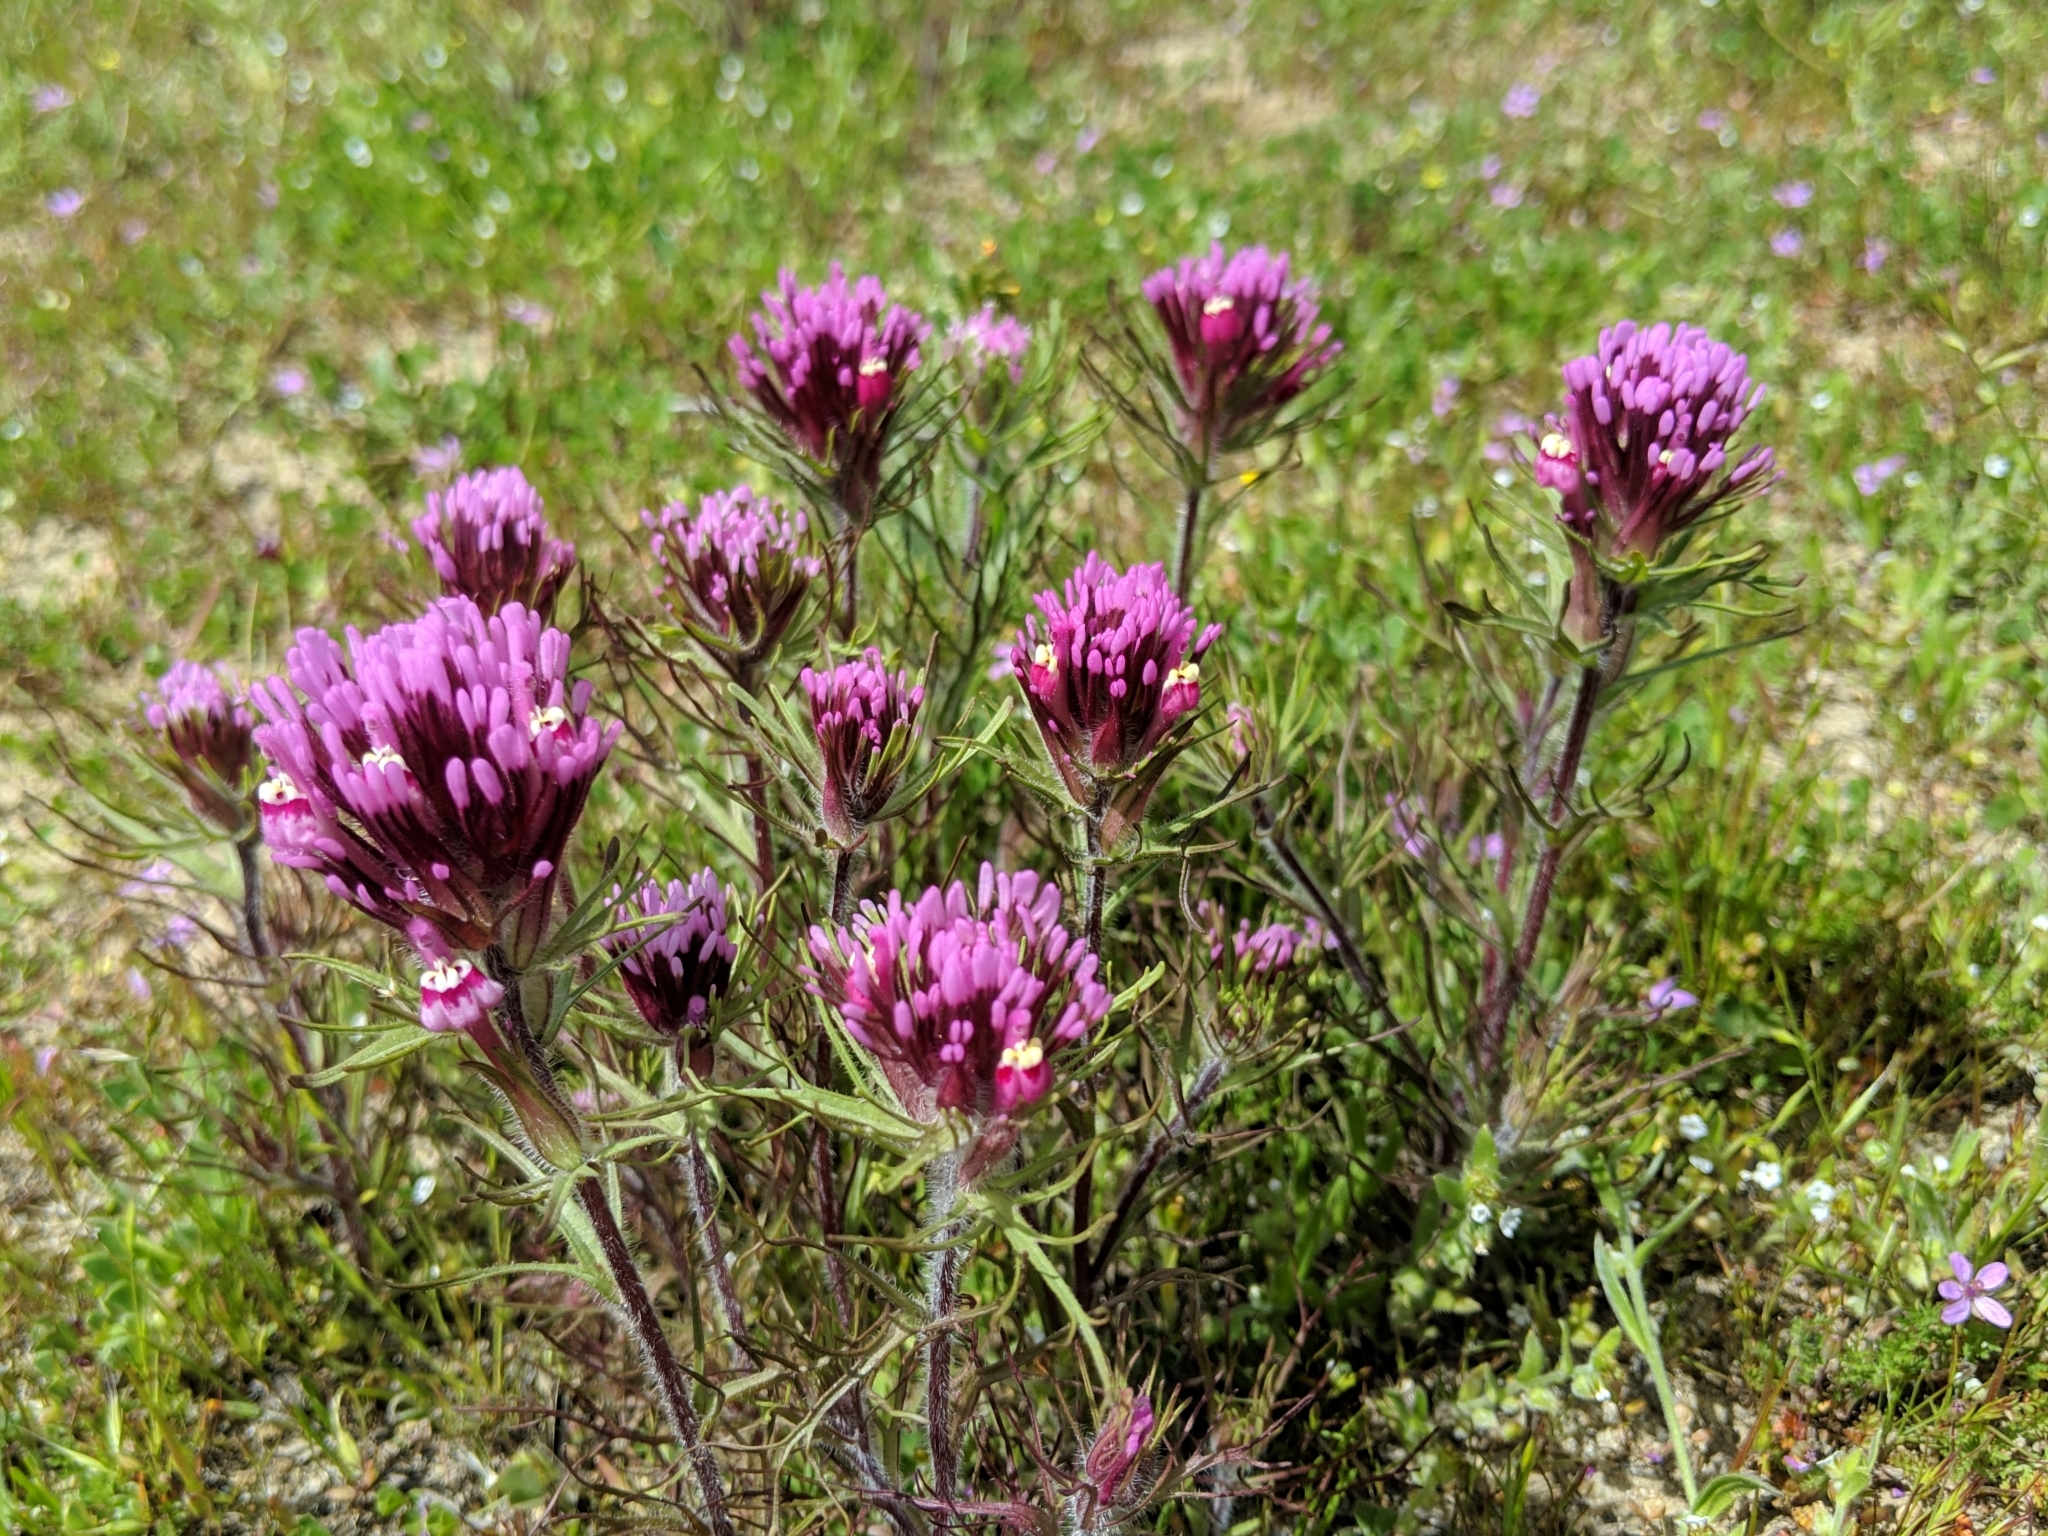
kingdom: Plantae
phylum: Tracheophyta
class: Magnoliopsida
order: Lamiales
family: Orobanchaceae
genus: Castilleja
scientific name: Castilleja exserta
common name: Purple owl-clover
